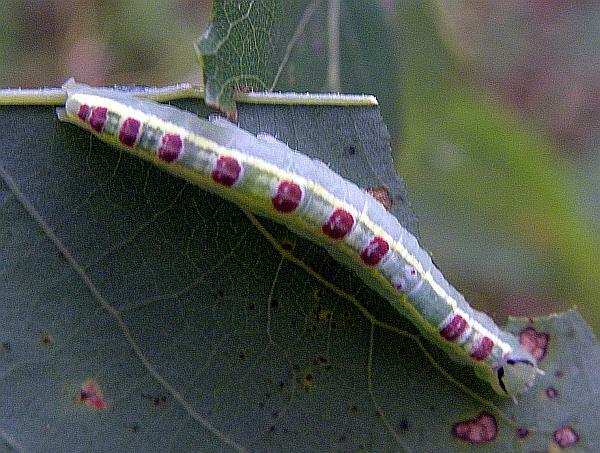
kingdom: Animalia
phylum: Arthropoda
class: Insecta
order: Lepidoptera
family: Notodontidae
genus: Gluphisia
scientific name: Gluphisia septentrionis
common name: Common gluphisia
